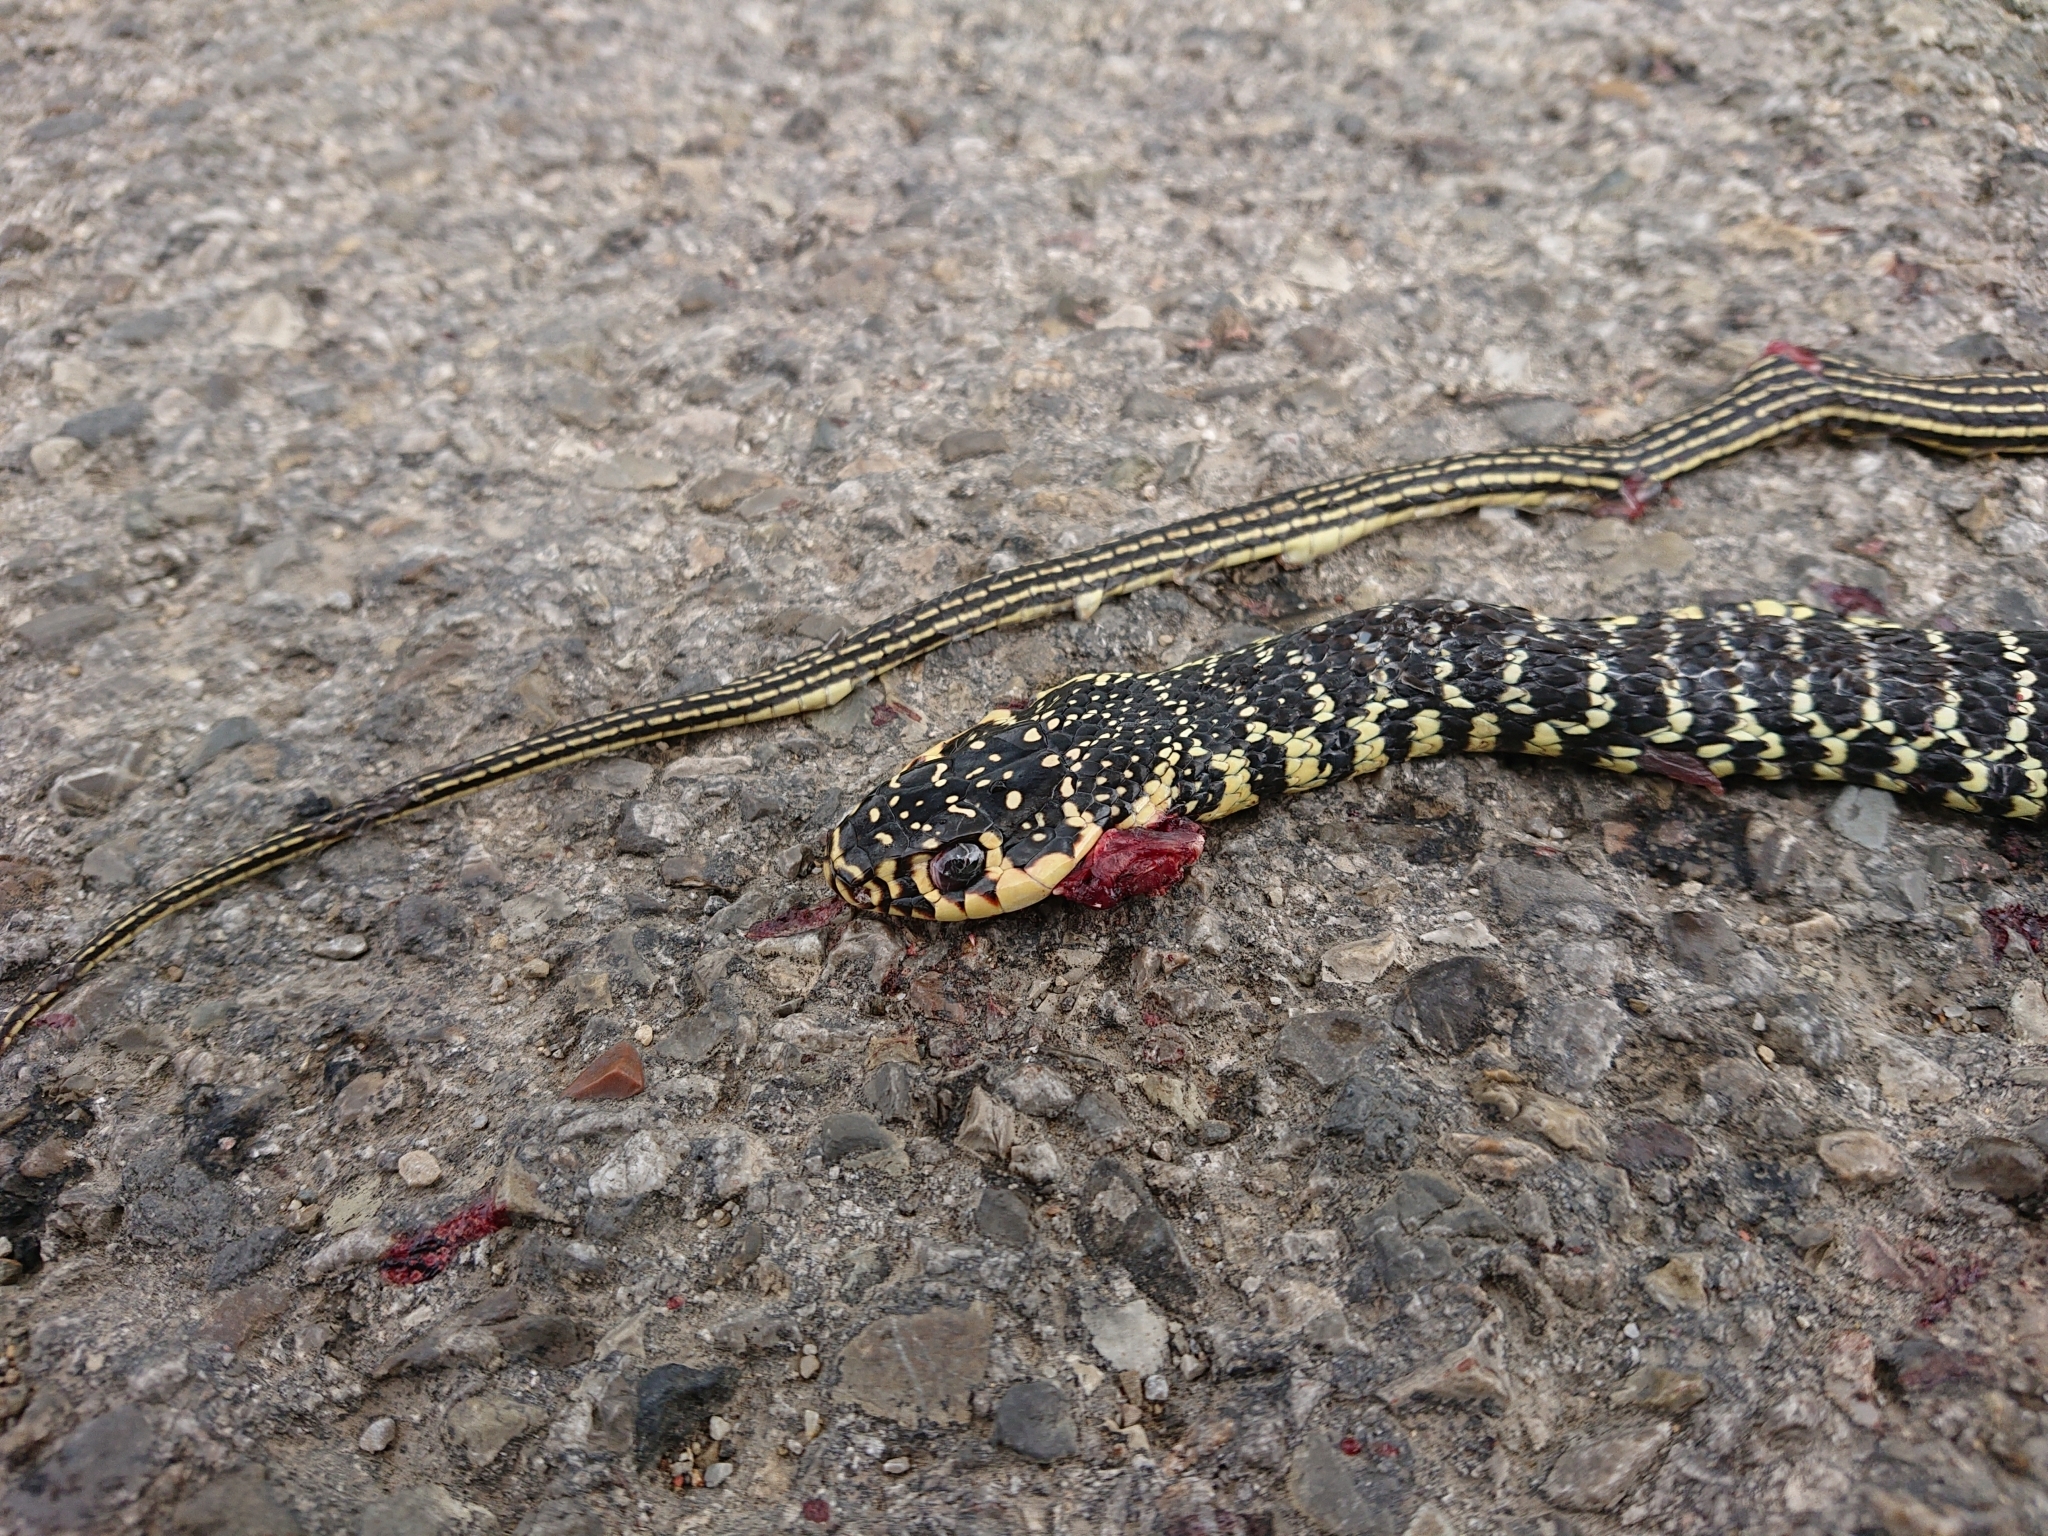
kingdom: Animalia
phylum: Chordata
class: Squamata
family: Colubridae
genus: Hierophis
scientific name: Hierophis viridiflavus
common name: Green whip snake
